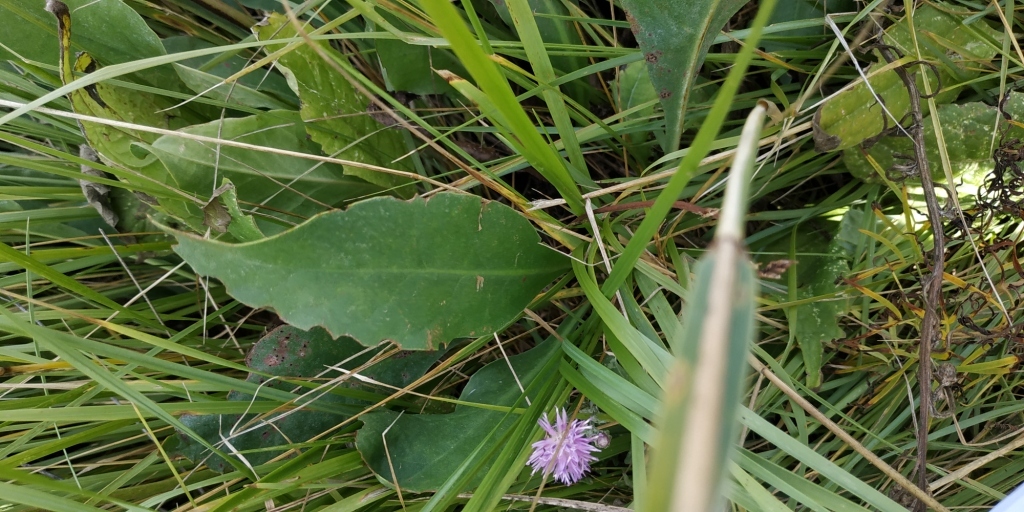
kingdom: Plantae
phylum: Tracheophyta
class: Magnoliopsida
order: Caryophyllales
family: Plumbaginaceae
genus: Limonium
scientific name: Limonium gmelini
